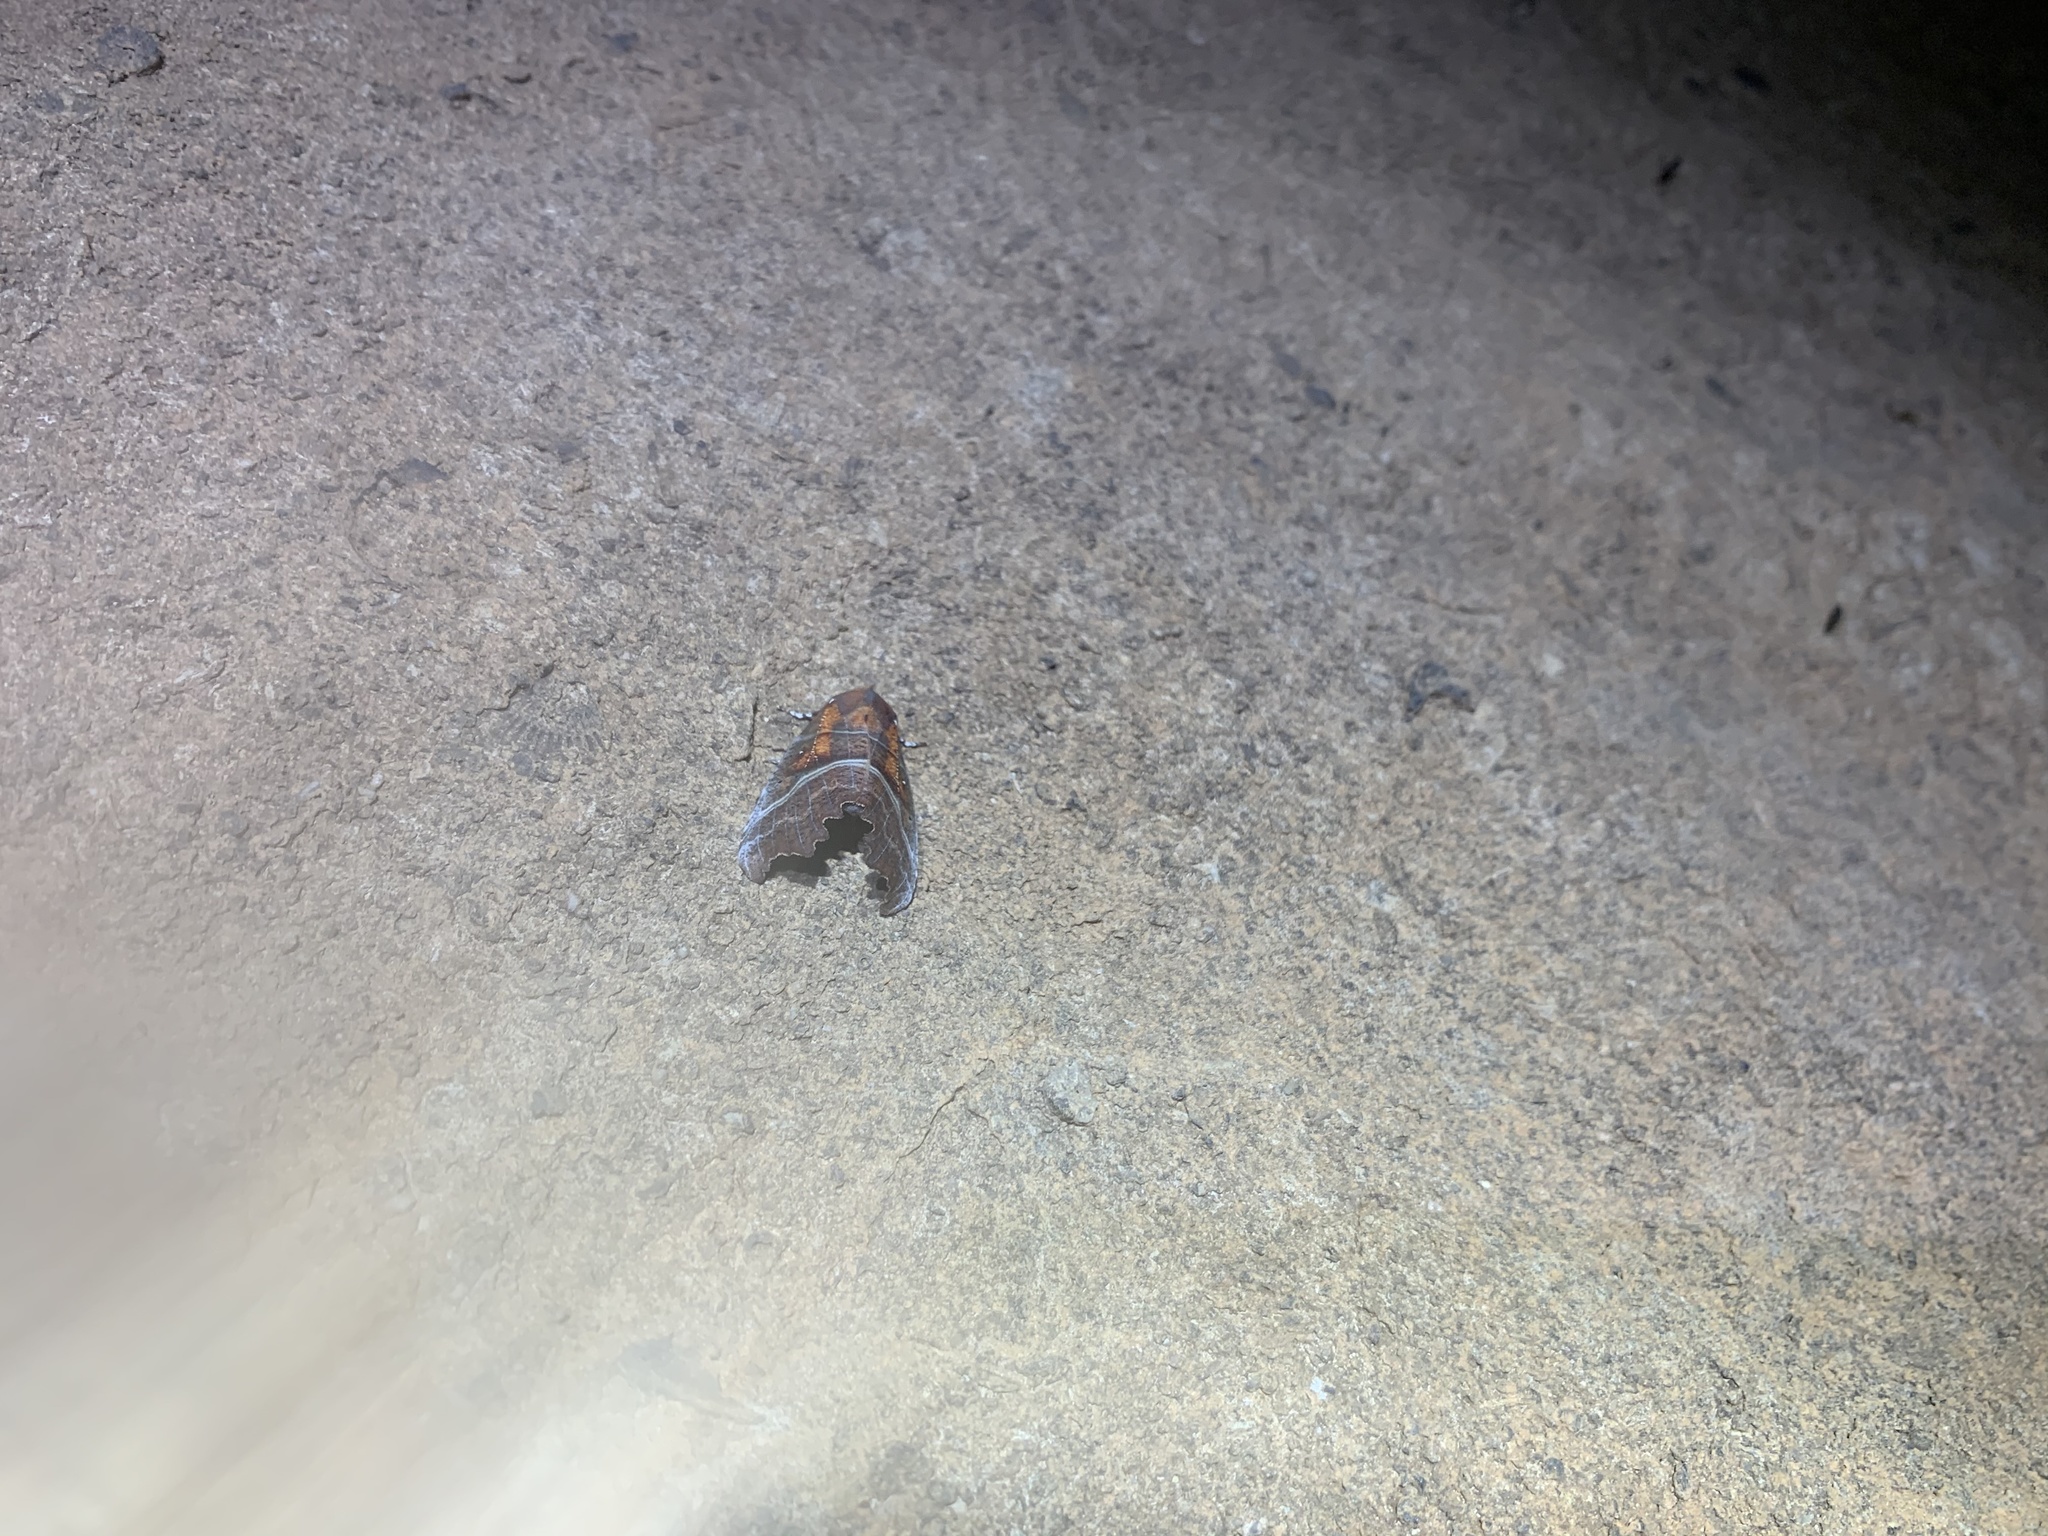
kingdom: Animalia
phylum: Arthropoda
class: Insecta
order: Lepidoptera
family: Erebidae
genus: Scoliopteryx
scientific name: Scoliopteryx libatrix
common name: Herald
